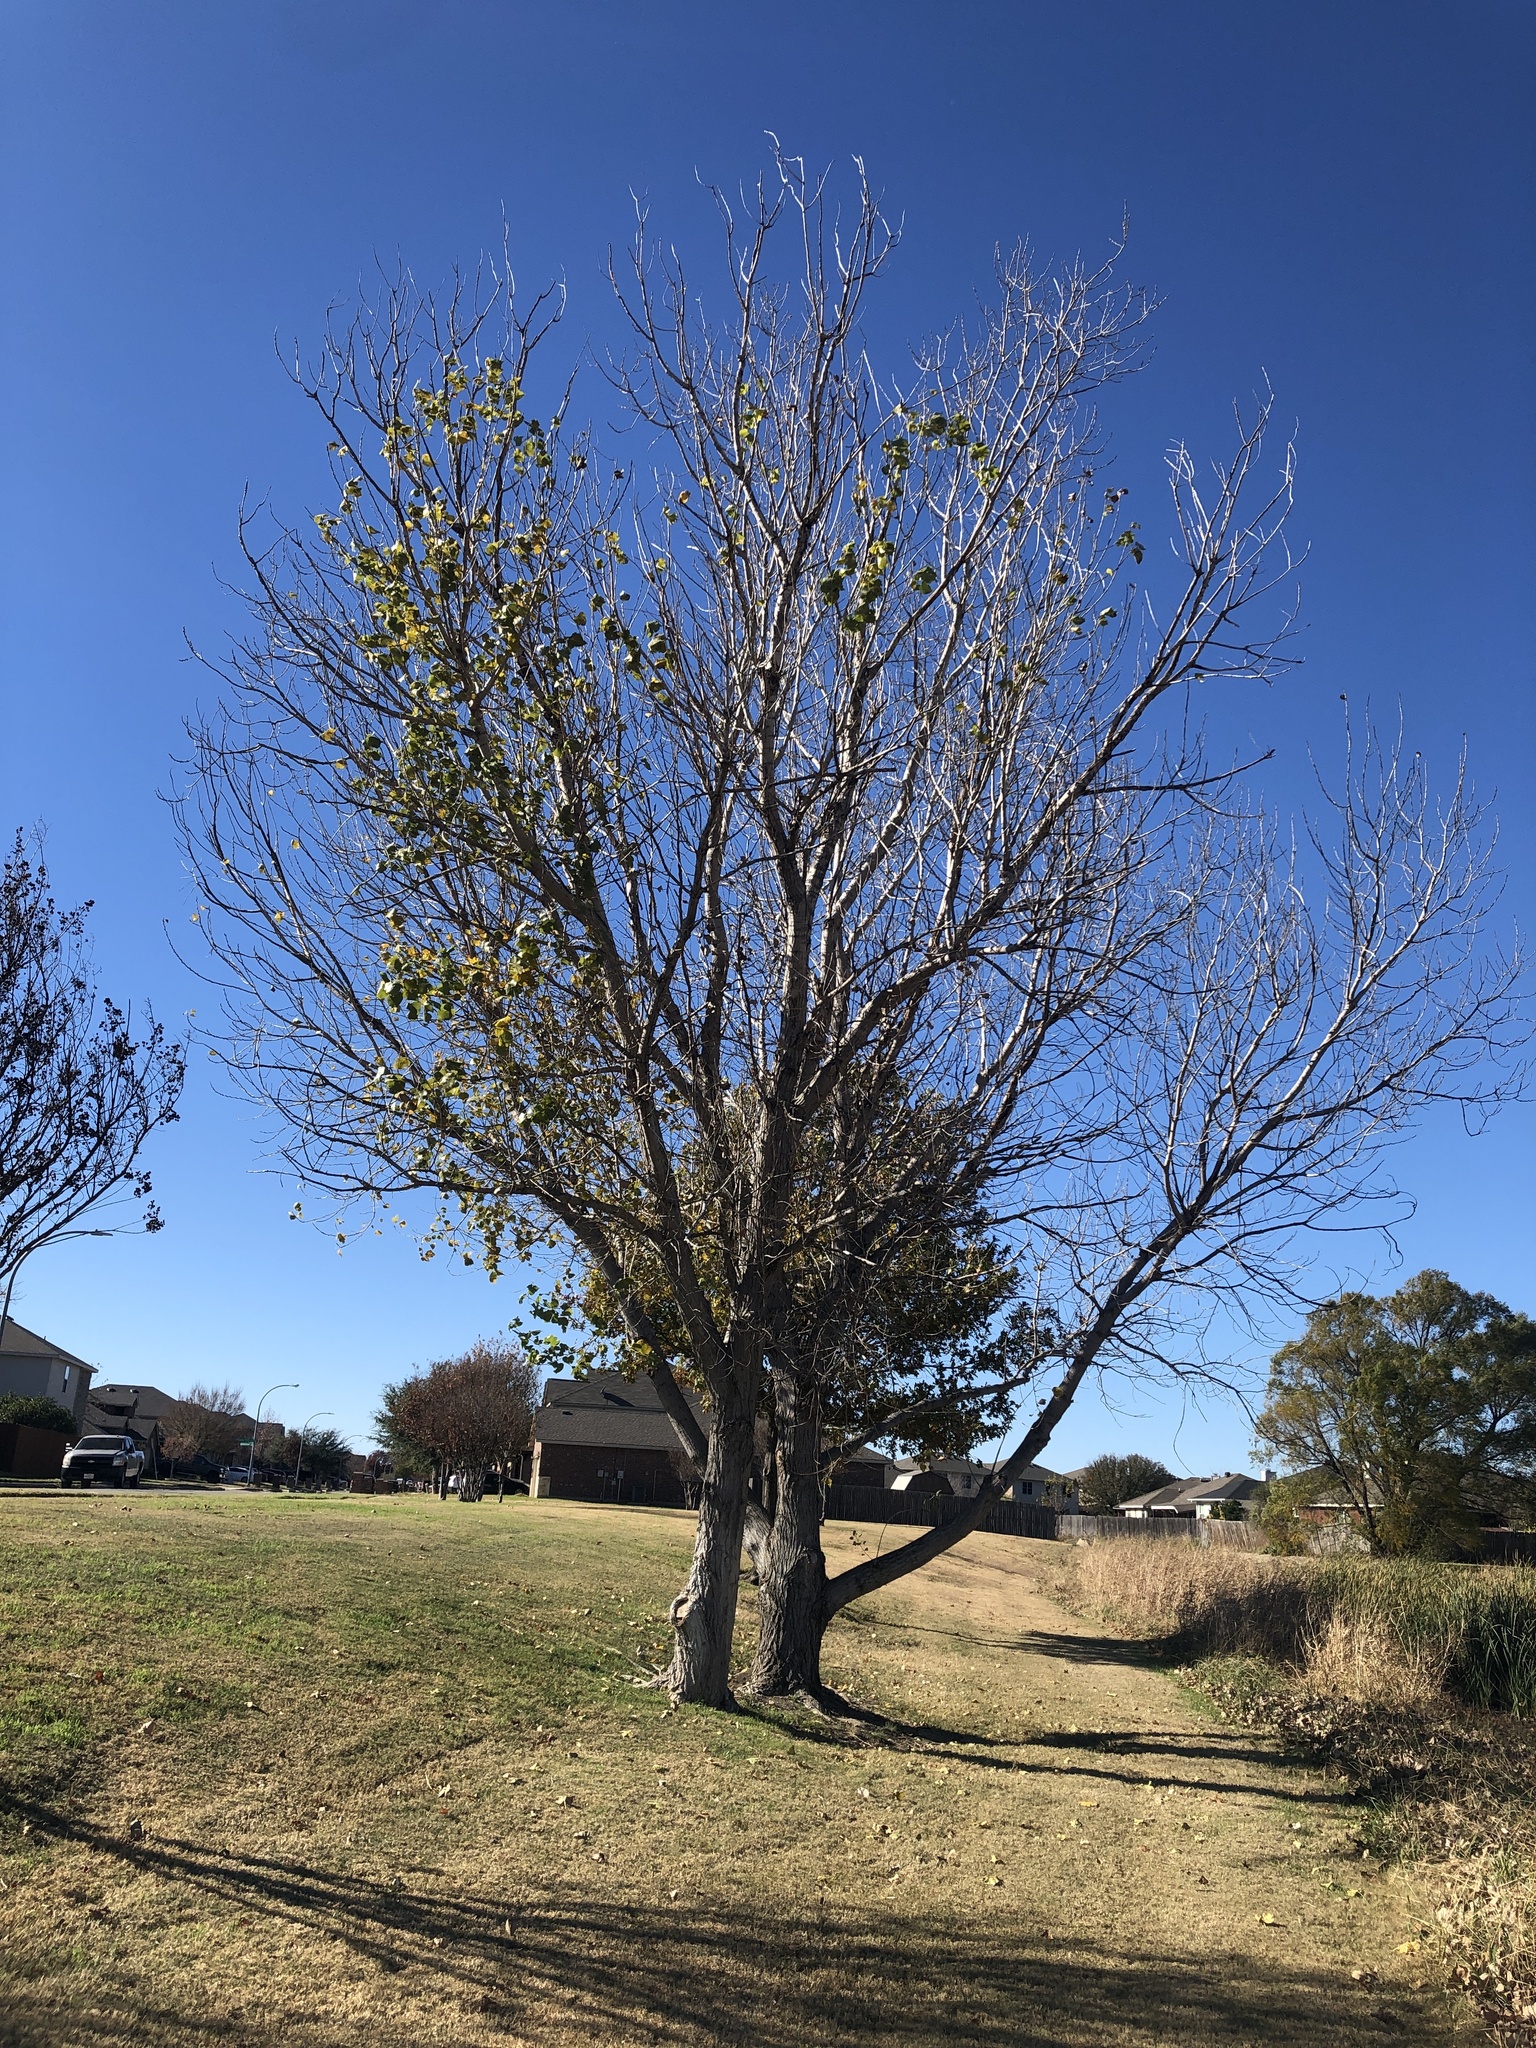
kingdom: Plantae
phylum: Tracheophyta
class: Magnoliopsida
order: Malpighiales
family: Salicaceae
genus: Populus
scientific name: Populus deltoides
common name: Eastern cottonwood
